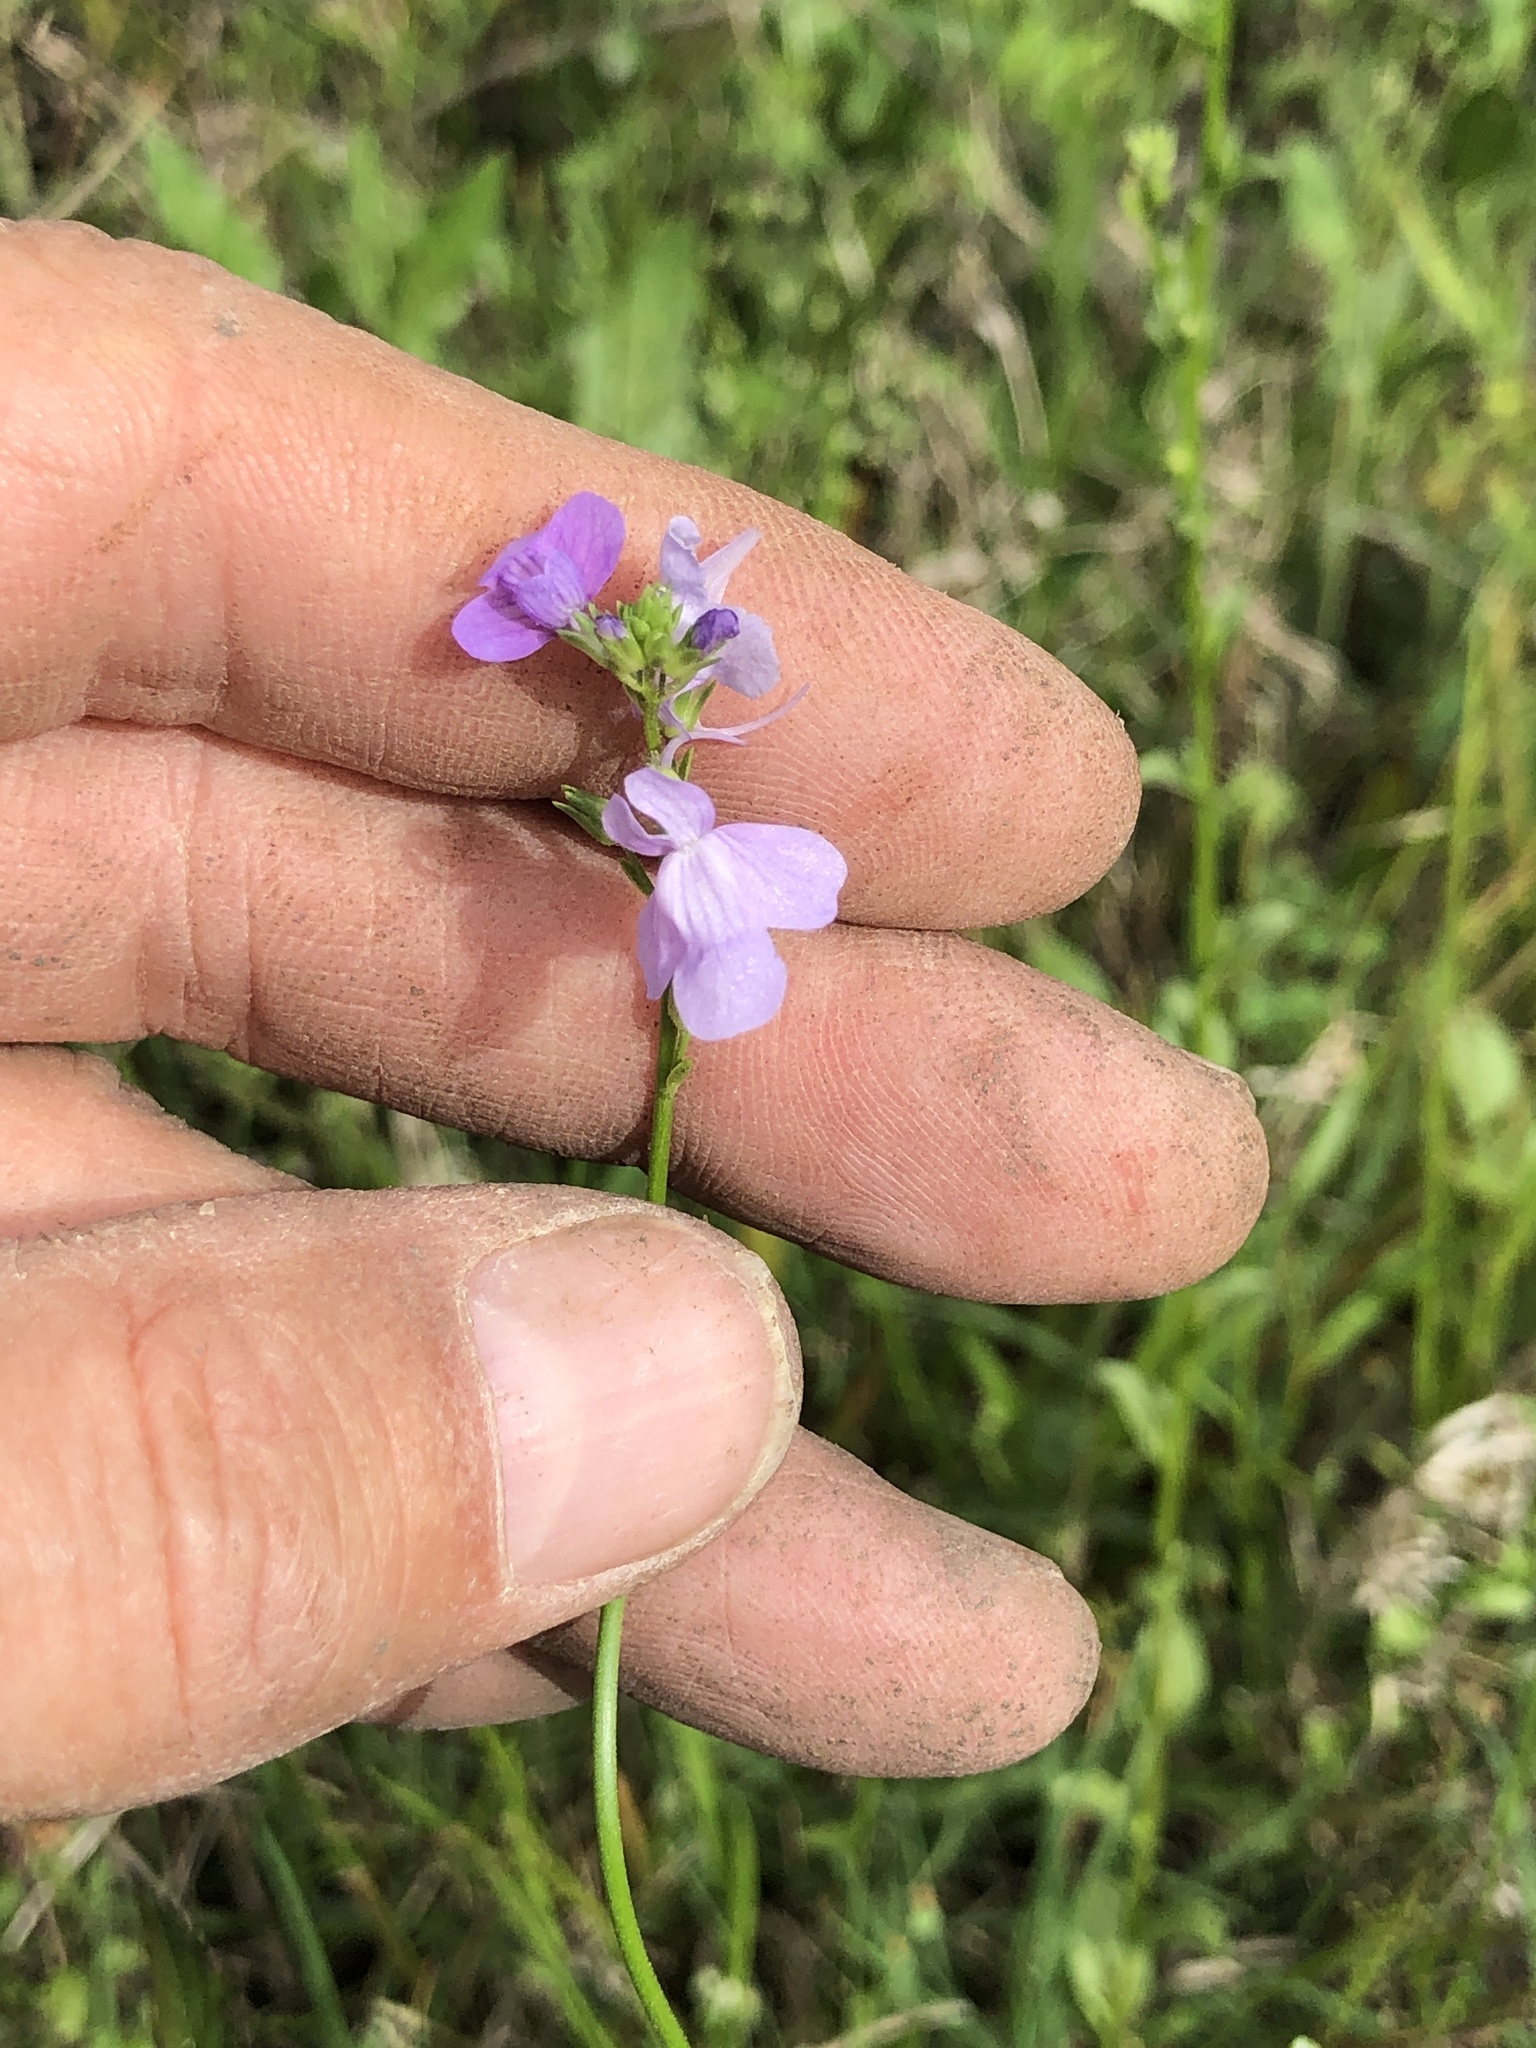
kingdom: Plantae
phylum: Tracheophyta
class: Magnoliopsida
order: Lamiales
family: Plantaginaceae
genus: Nuttallanthus
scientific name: Nuttallanthus texanus
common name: Texas toadflax
